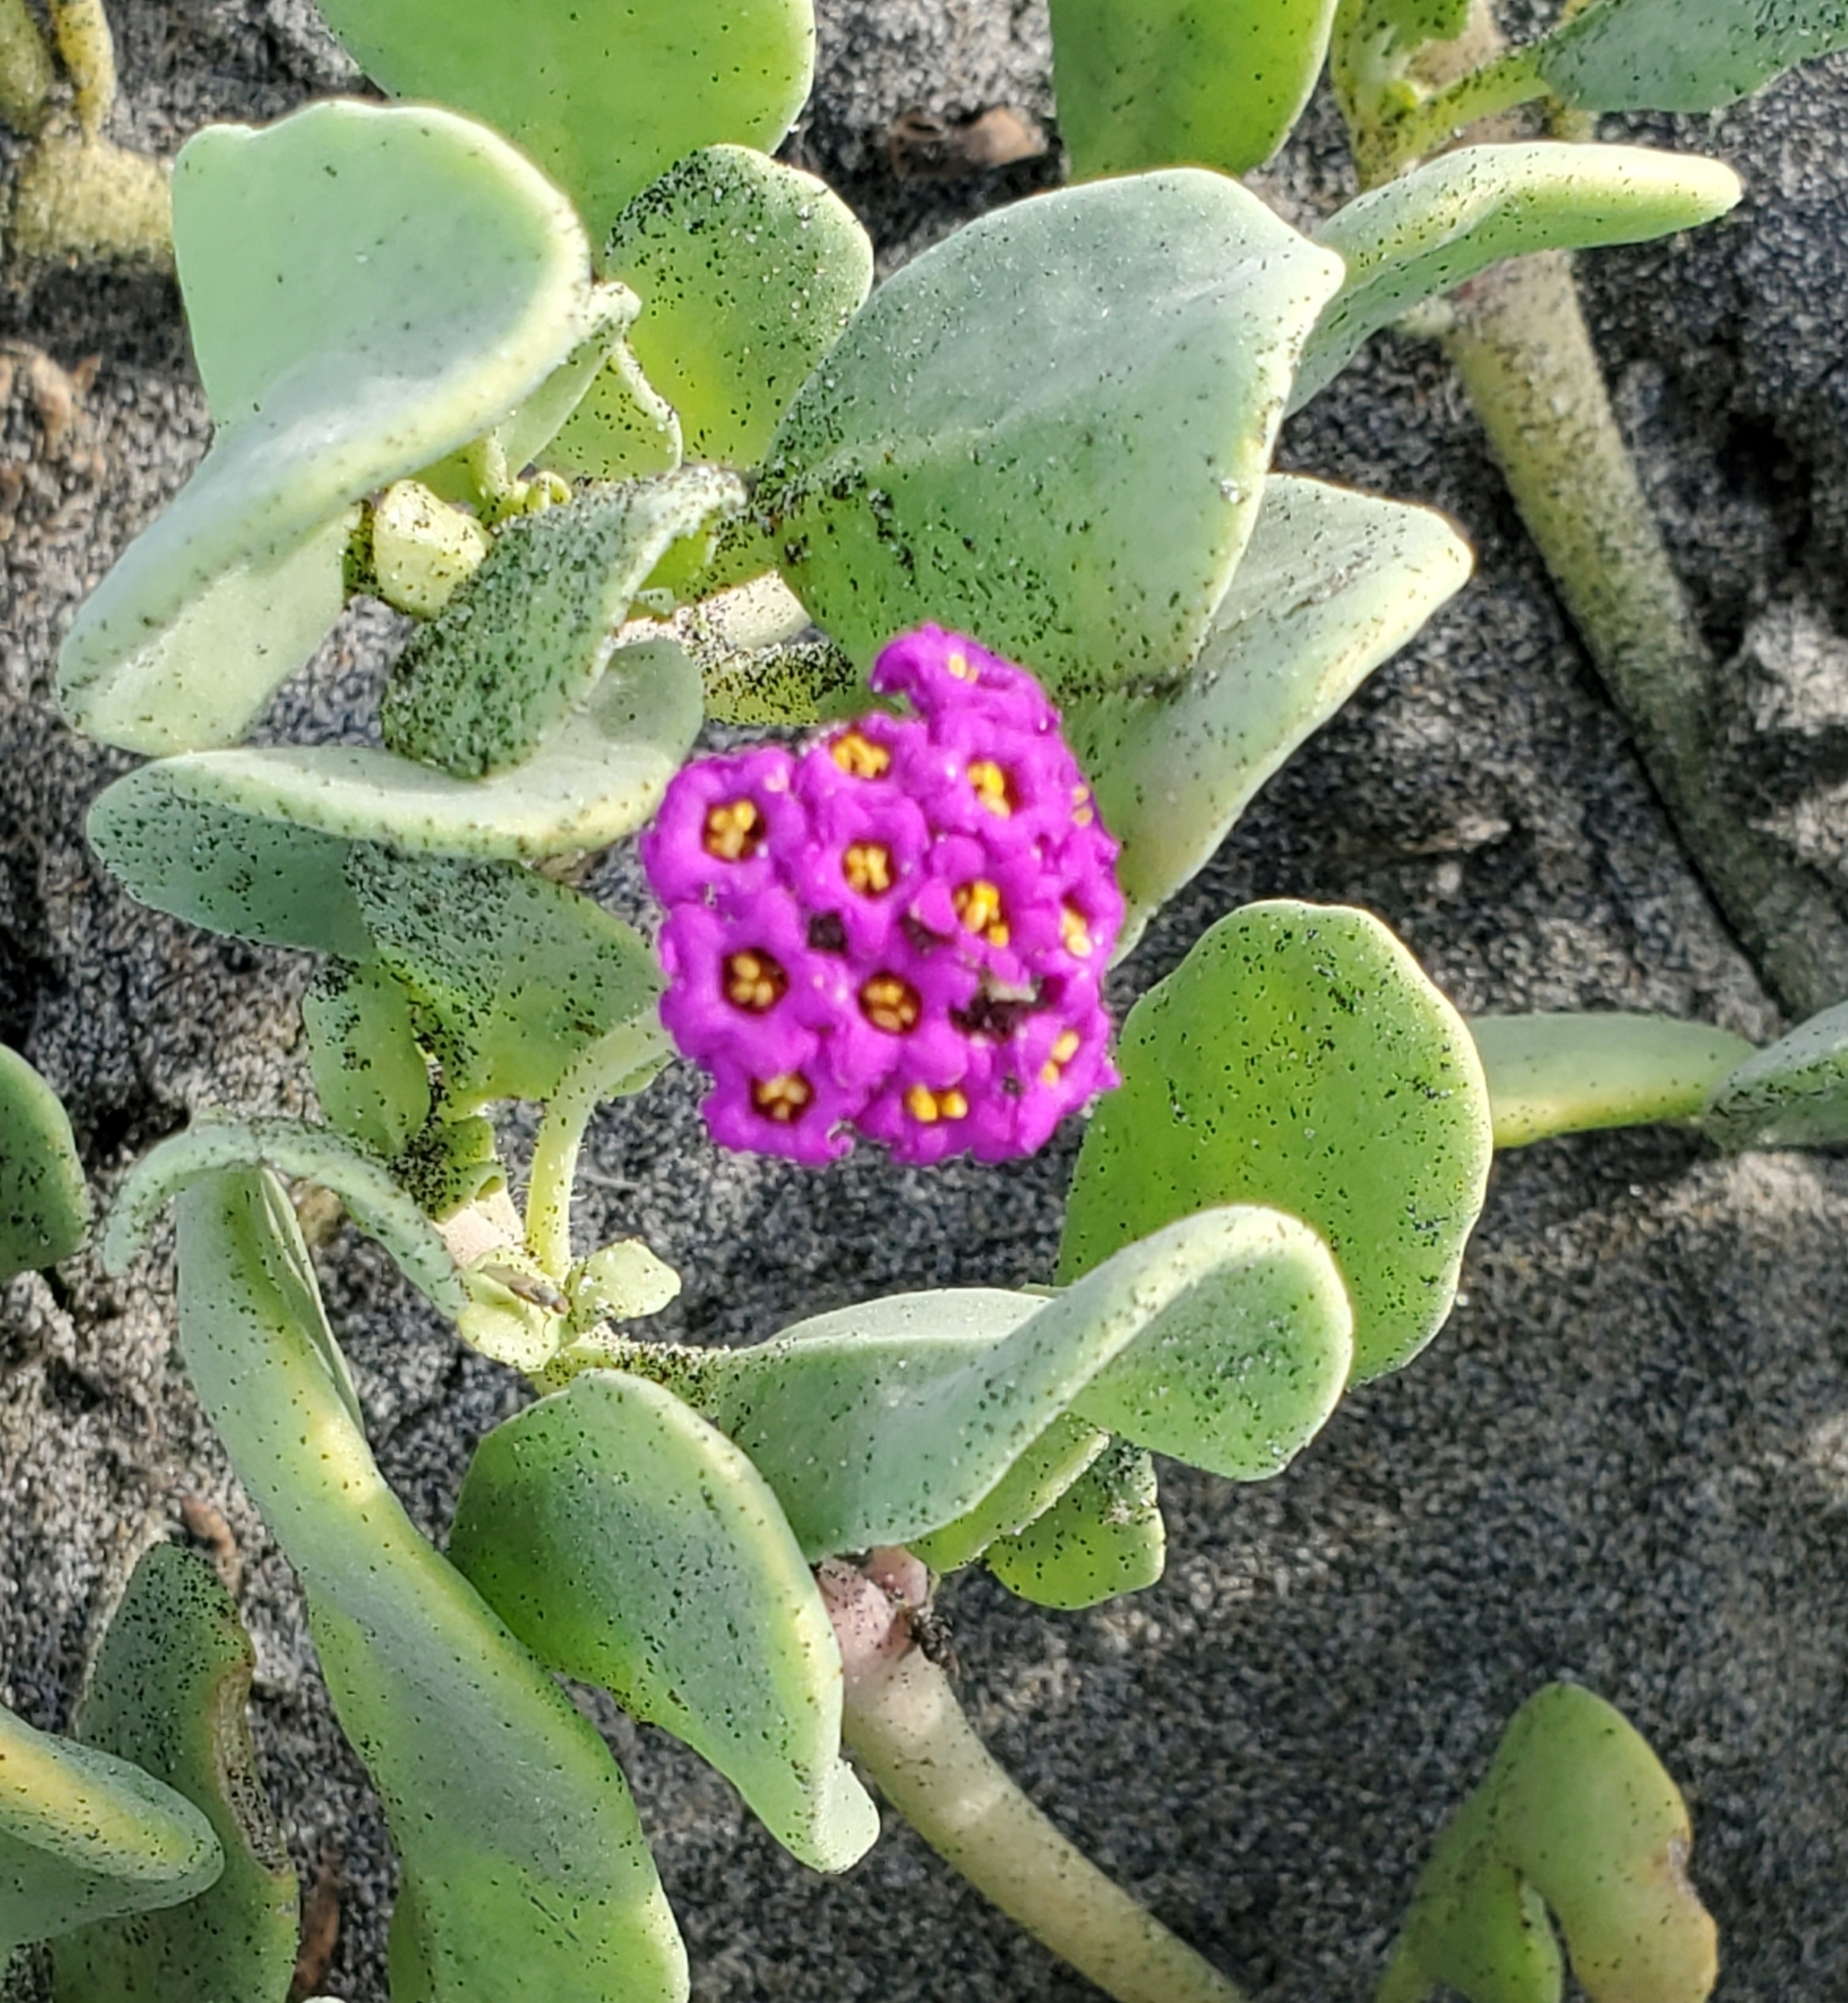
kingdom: Plantae
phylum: Tracheophyta
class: Magnoliopsida
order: Caryophyllales
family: Nyctaginaceae
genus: Abronia
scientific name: Abronia maritima
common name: Red sand-verbena
